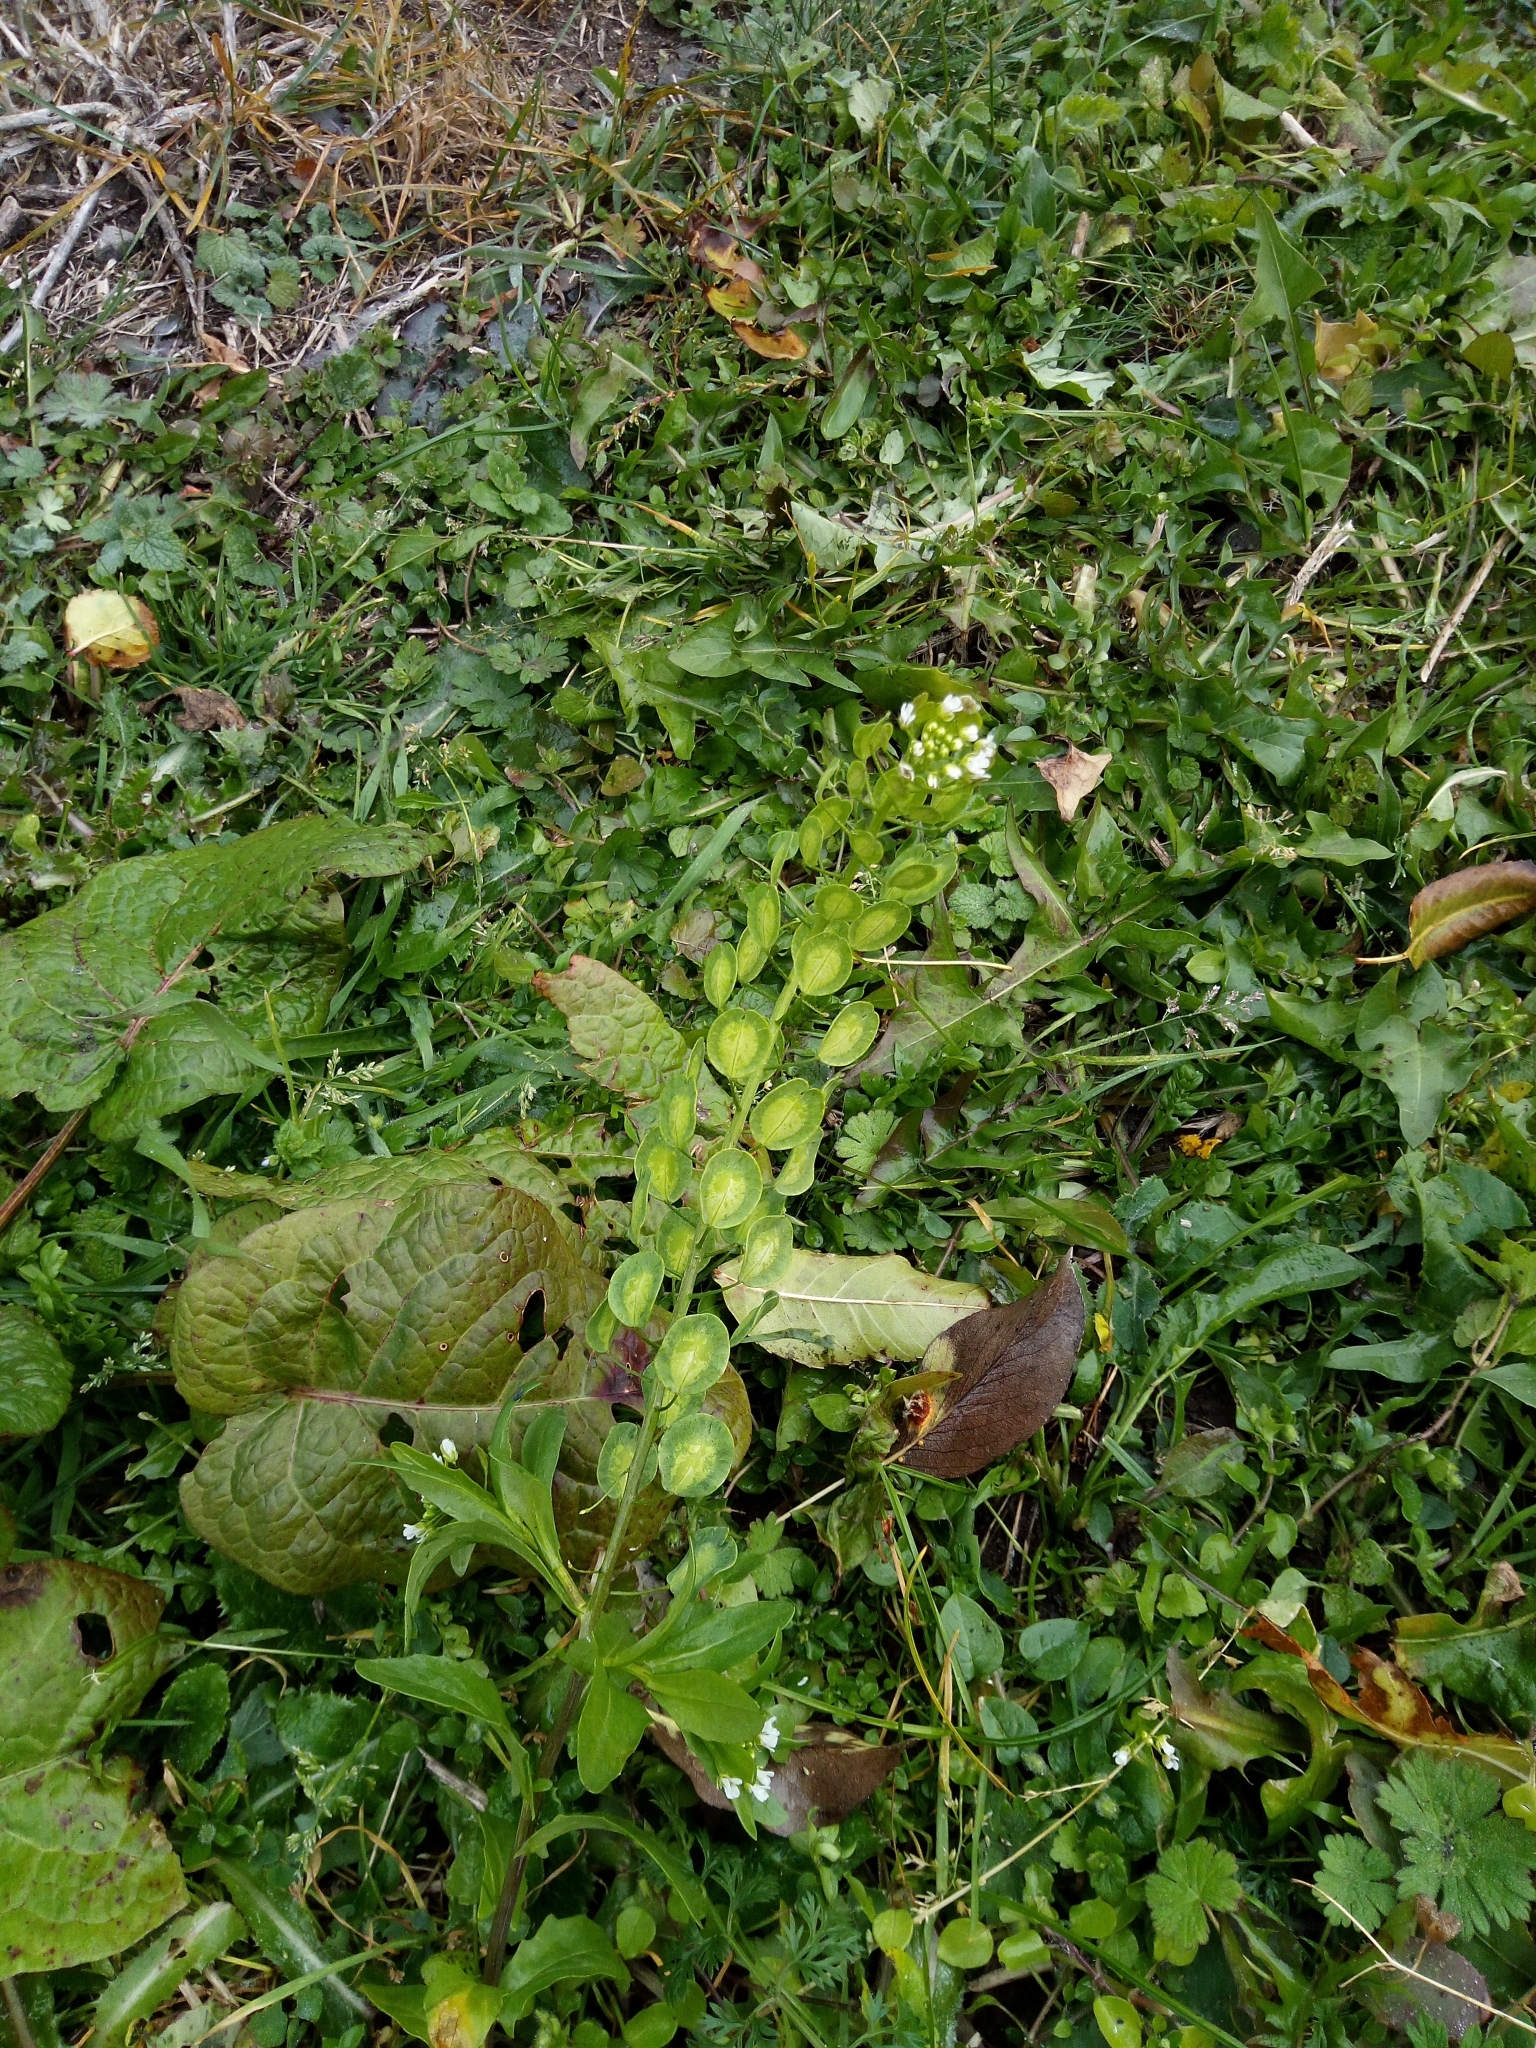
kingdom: Plantae
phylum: Tracheophyta
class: Magnoliopsida
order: Brassicales
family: Brassicaceae
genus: Thlaspi
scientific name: Thlaspi arvense
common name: Field pennycress
